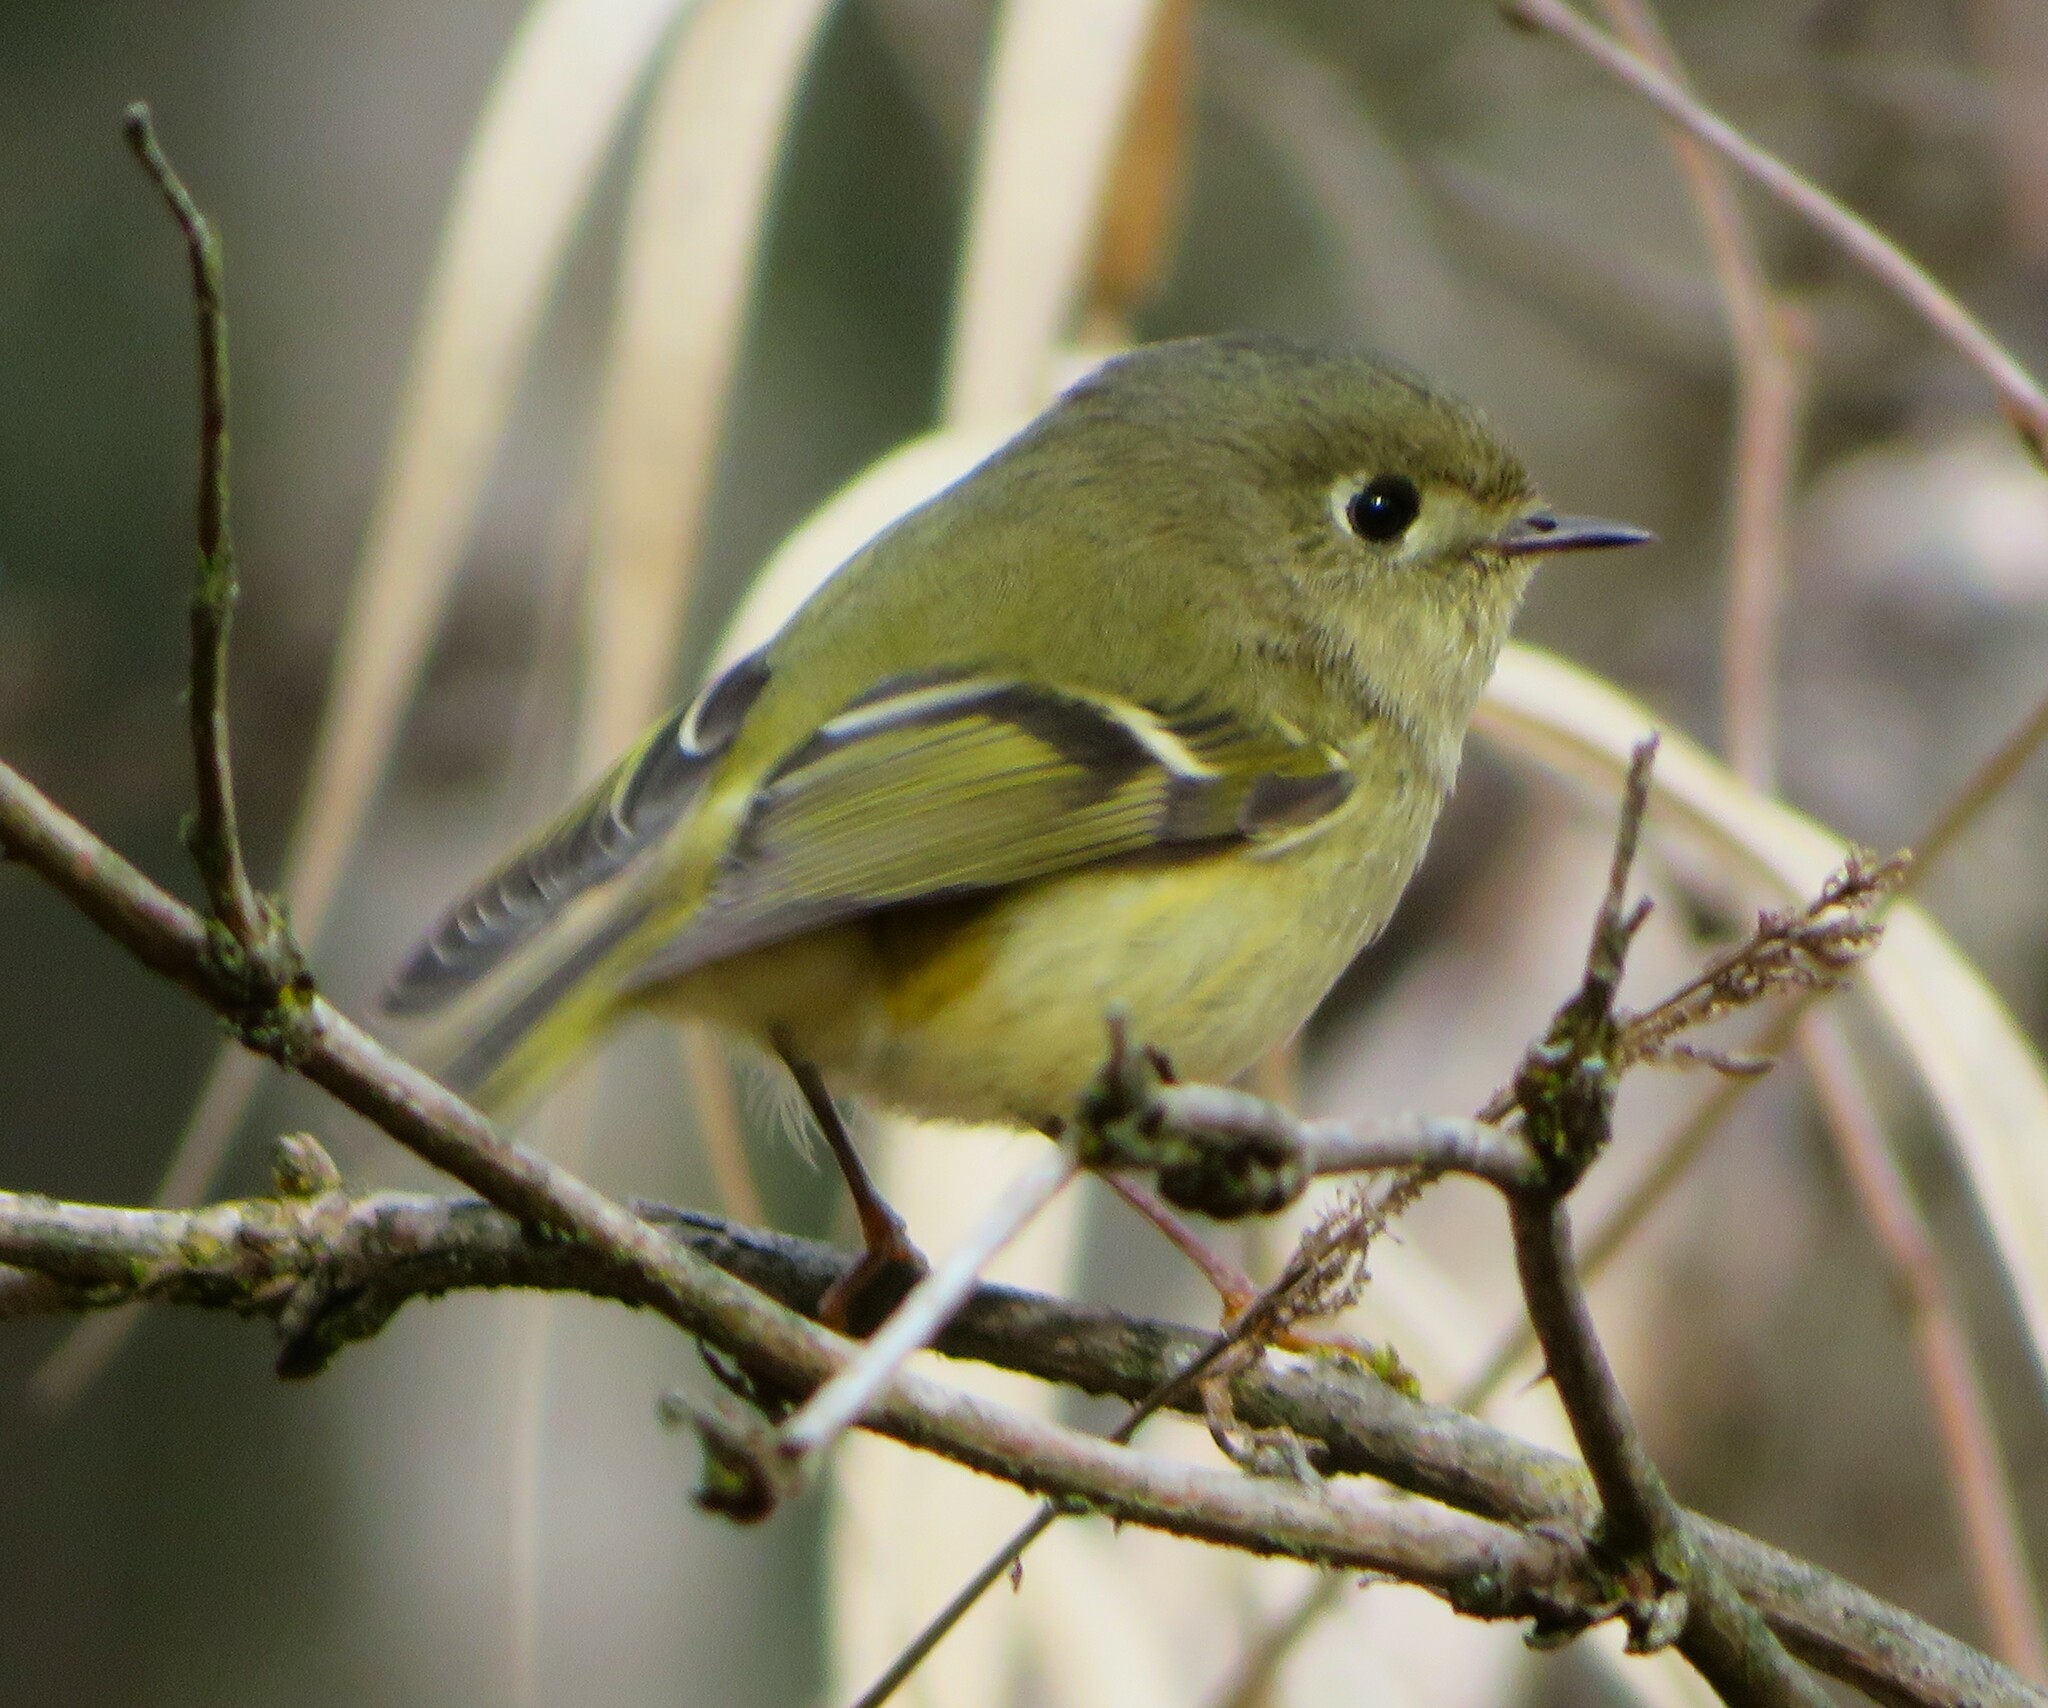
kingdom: Animalia
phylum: Chordata
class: Aves
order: Passeriformes
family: Regulidae
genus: Regulus
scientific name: Regulus calendula
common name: Ruby-crowned kinglet
